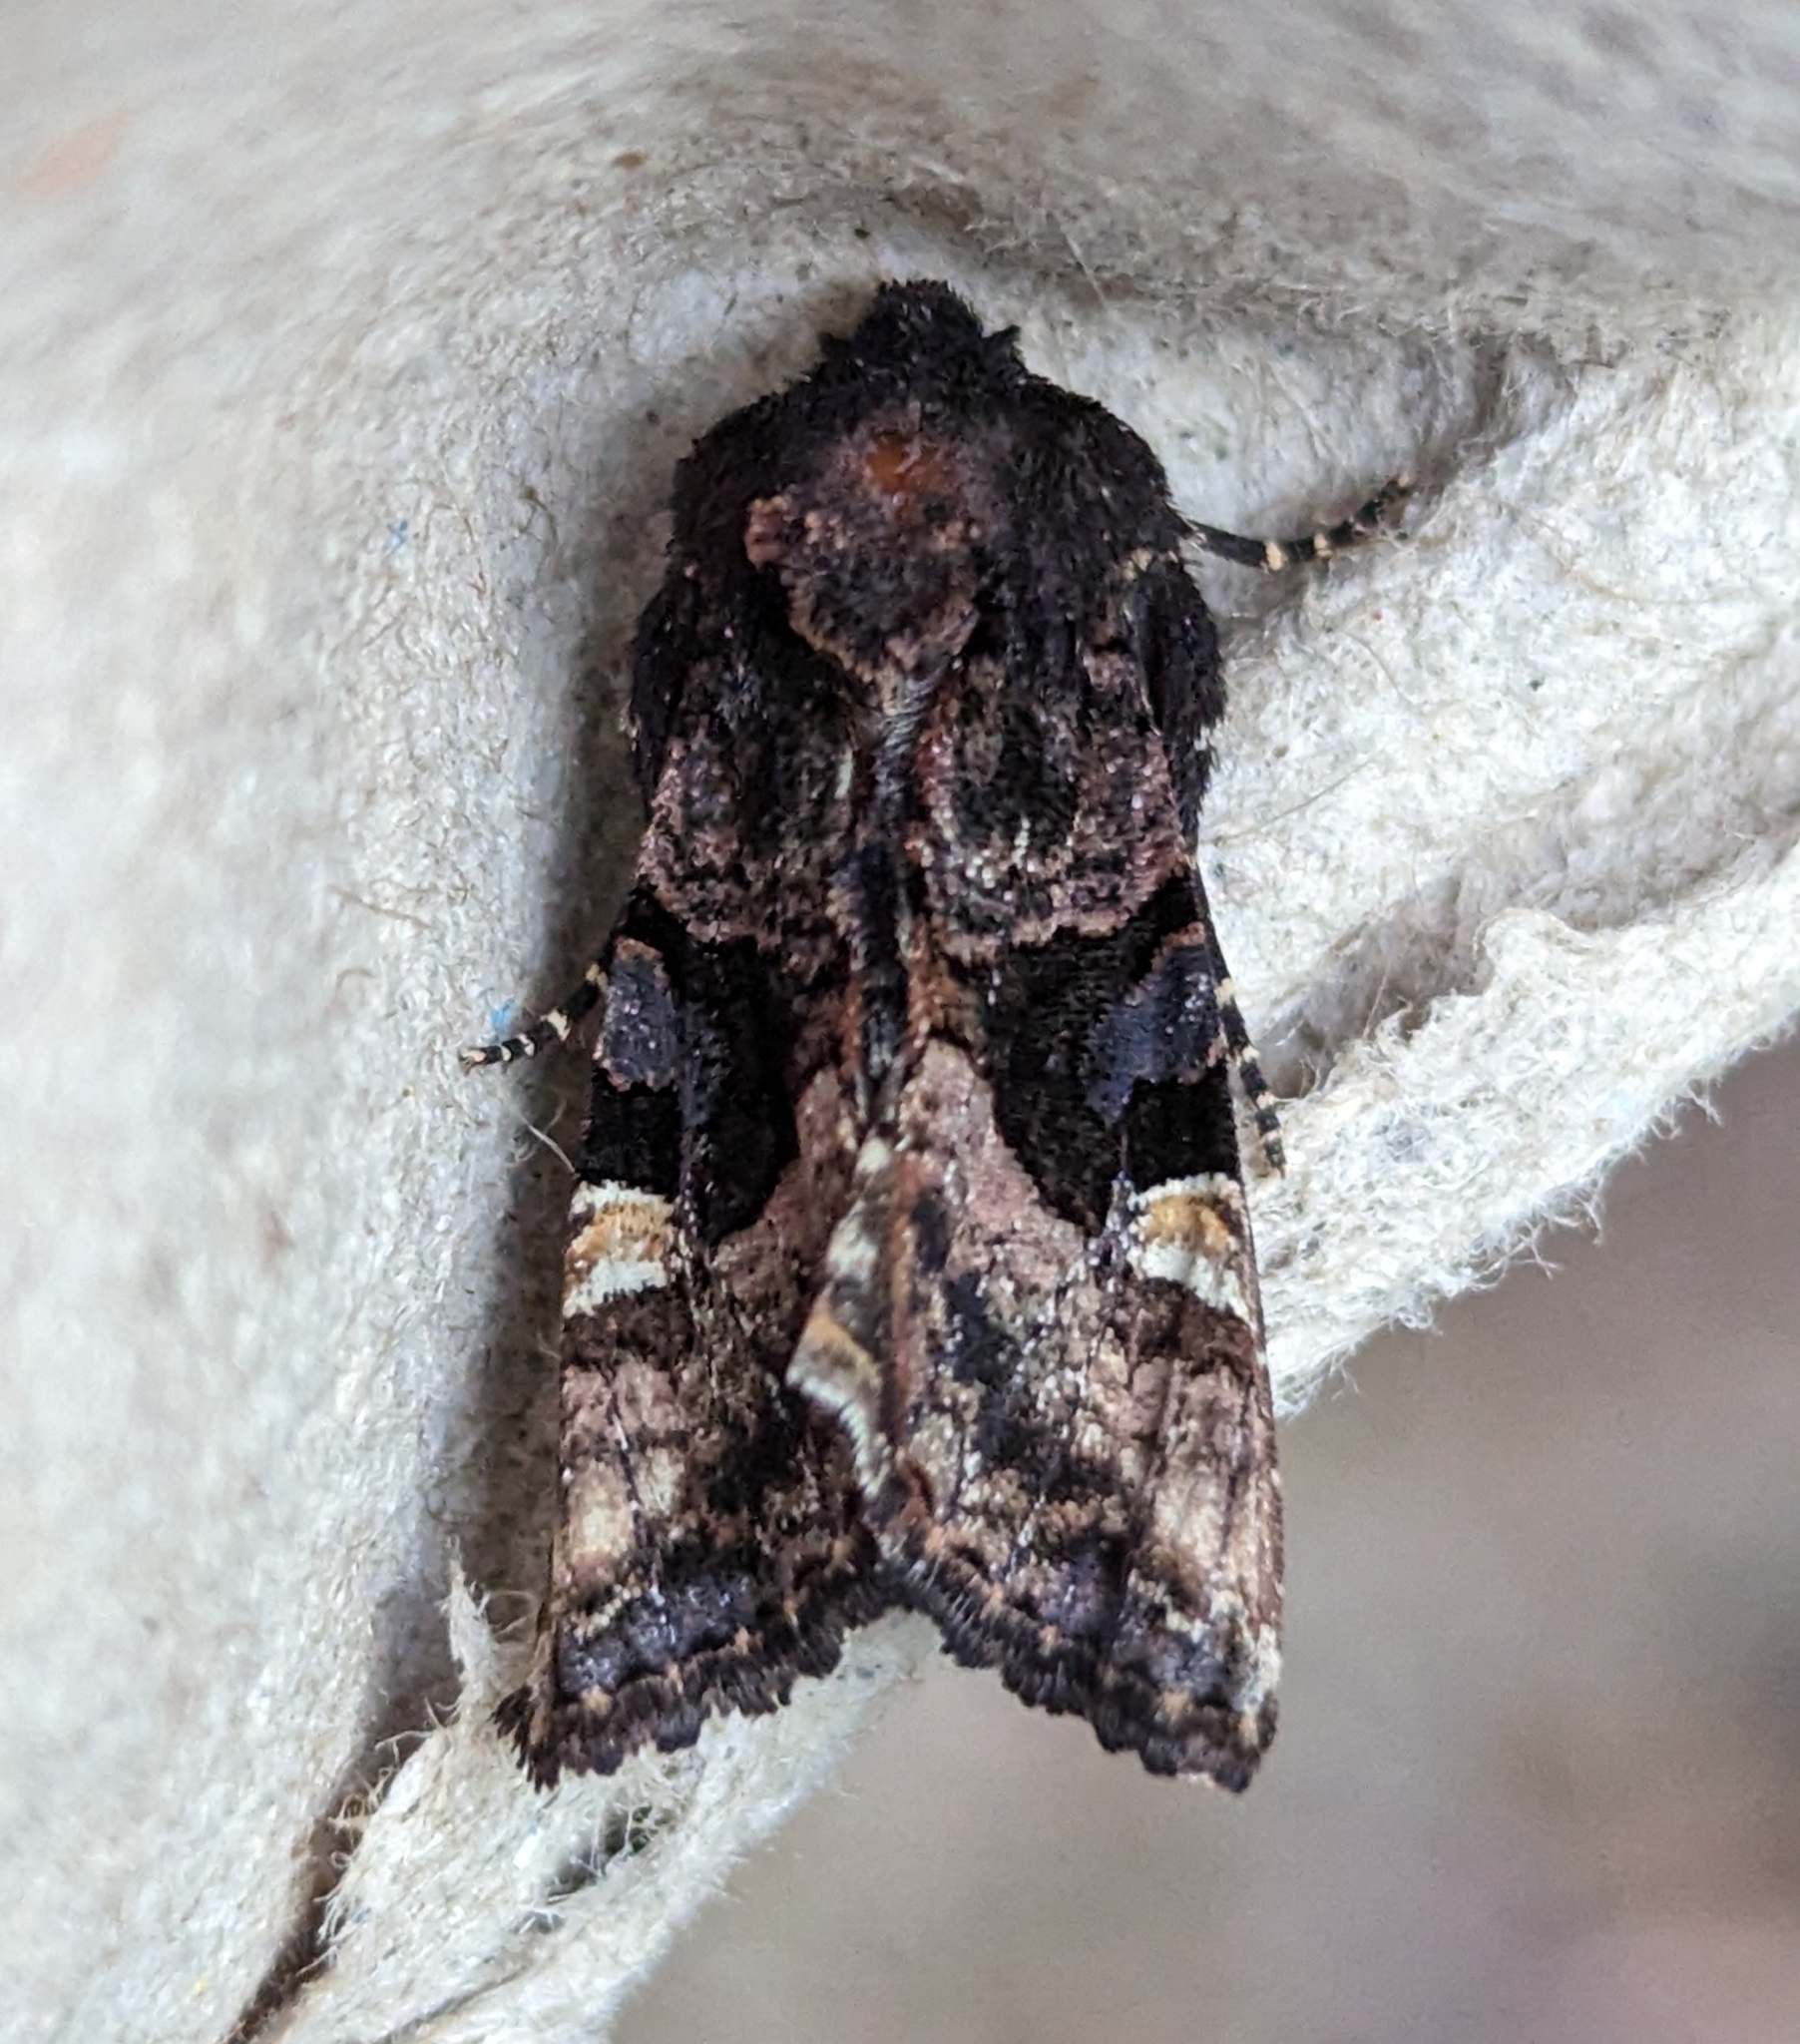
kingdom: Animalia
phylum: Arthropoda
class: Insecta
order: Lepidoptera
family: Noctuidae
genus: Euplexia
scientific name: Euplexia benesimilis
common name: American angle shades
